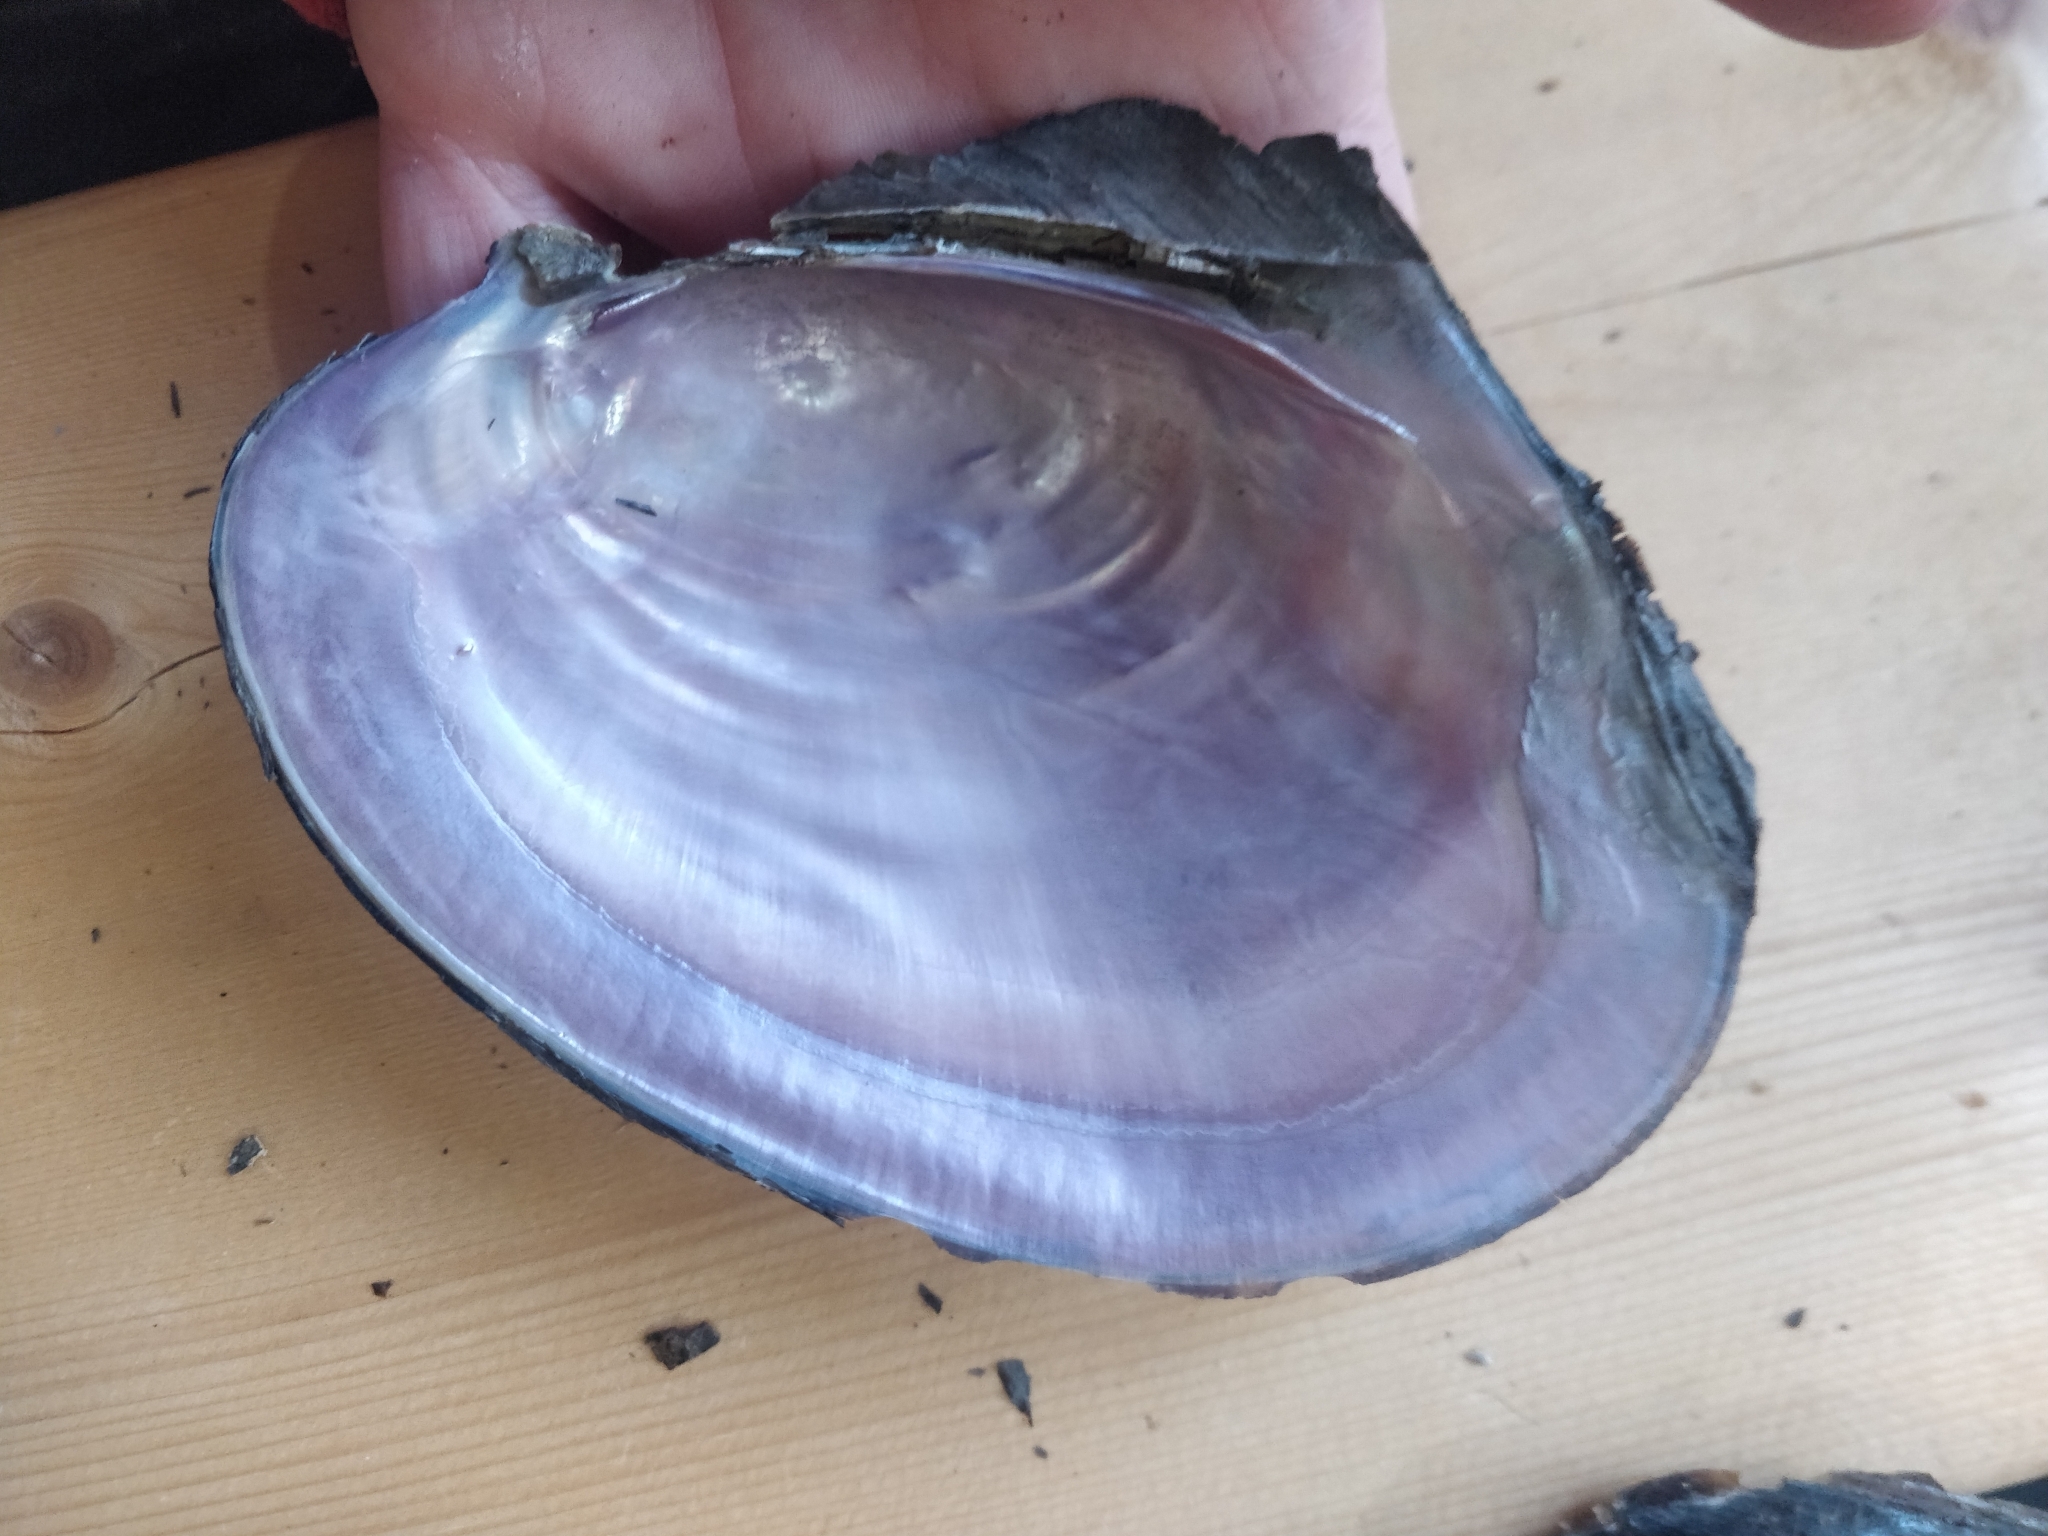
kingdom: Animalia
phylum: Mollusca
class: Bivalvia
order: Unionida
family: Unionidae
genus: Potamilus
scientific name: Potamilus ohiensis
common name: Pink papershell
